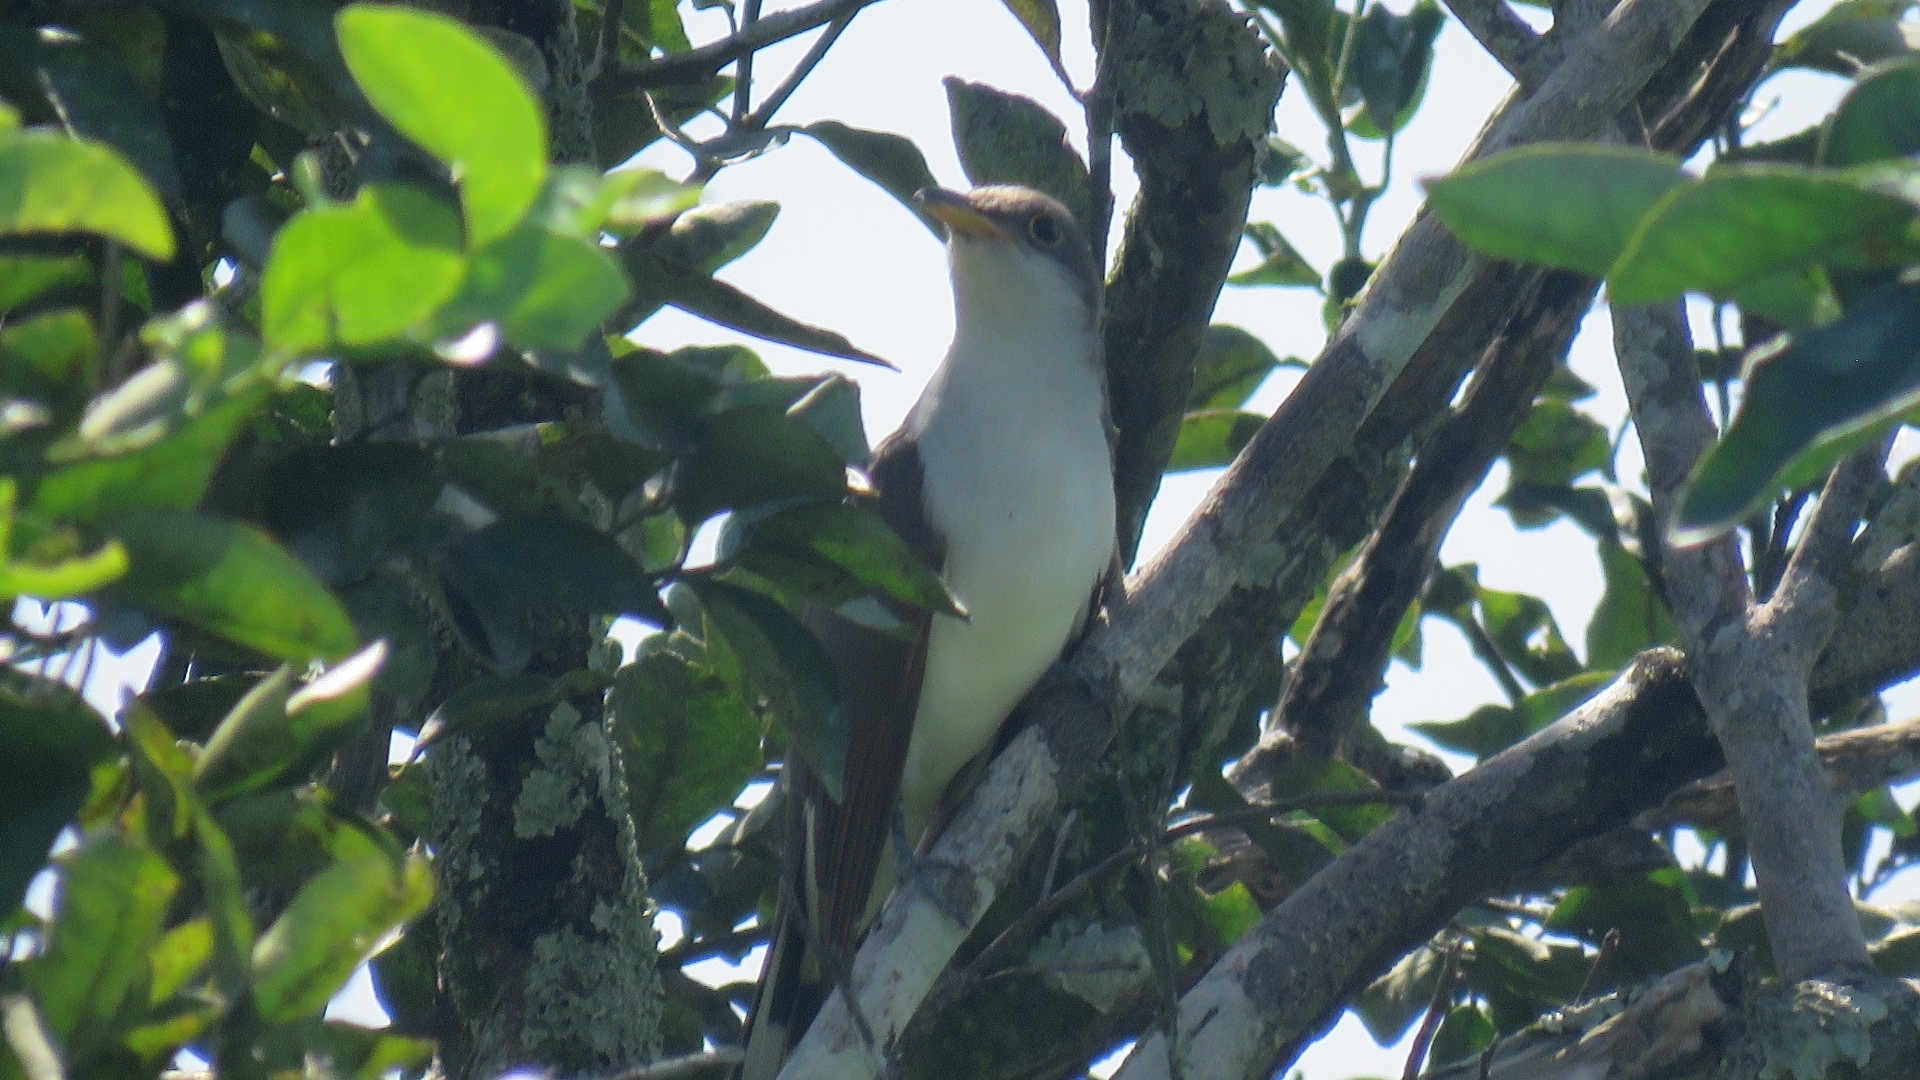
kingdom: Animalia
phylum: Chordata
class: Aves
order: Cuculiformes
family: Cuculidae
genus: Coccyzus
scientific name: Coccyzus americanus
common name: Yellow-billed cuckoo
